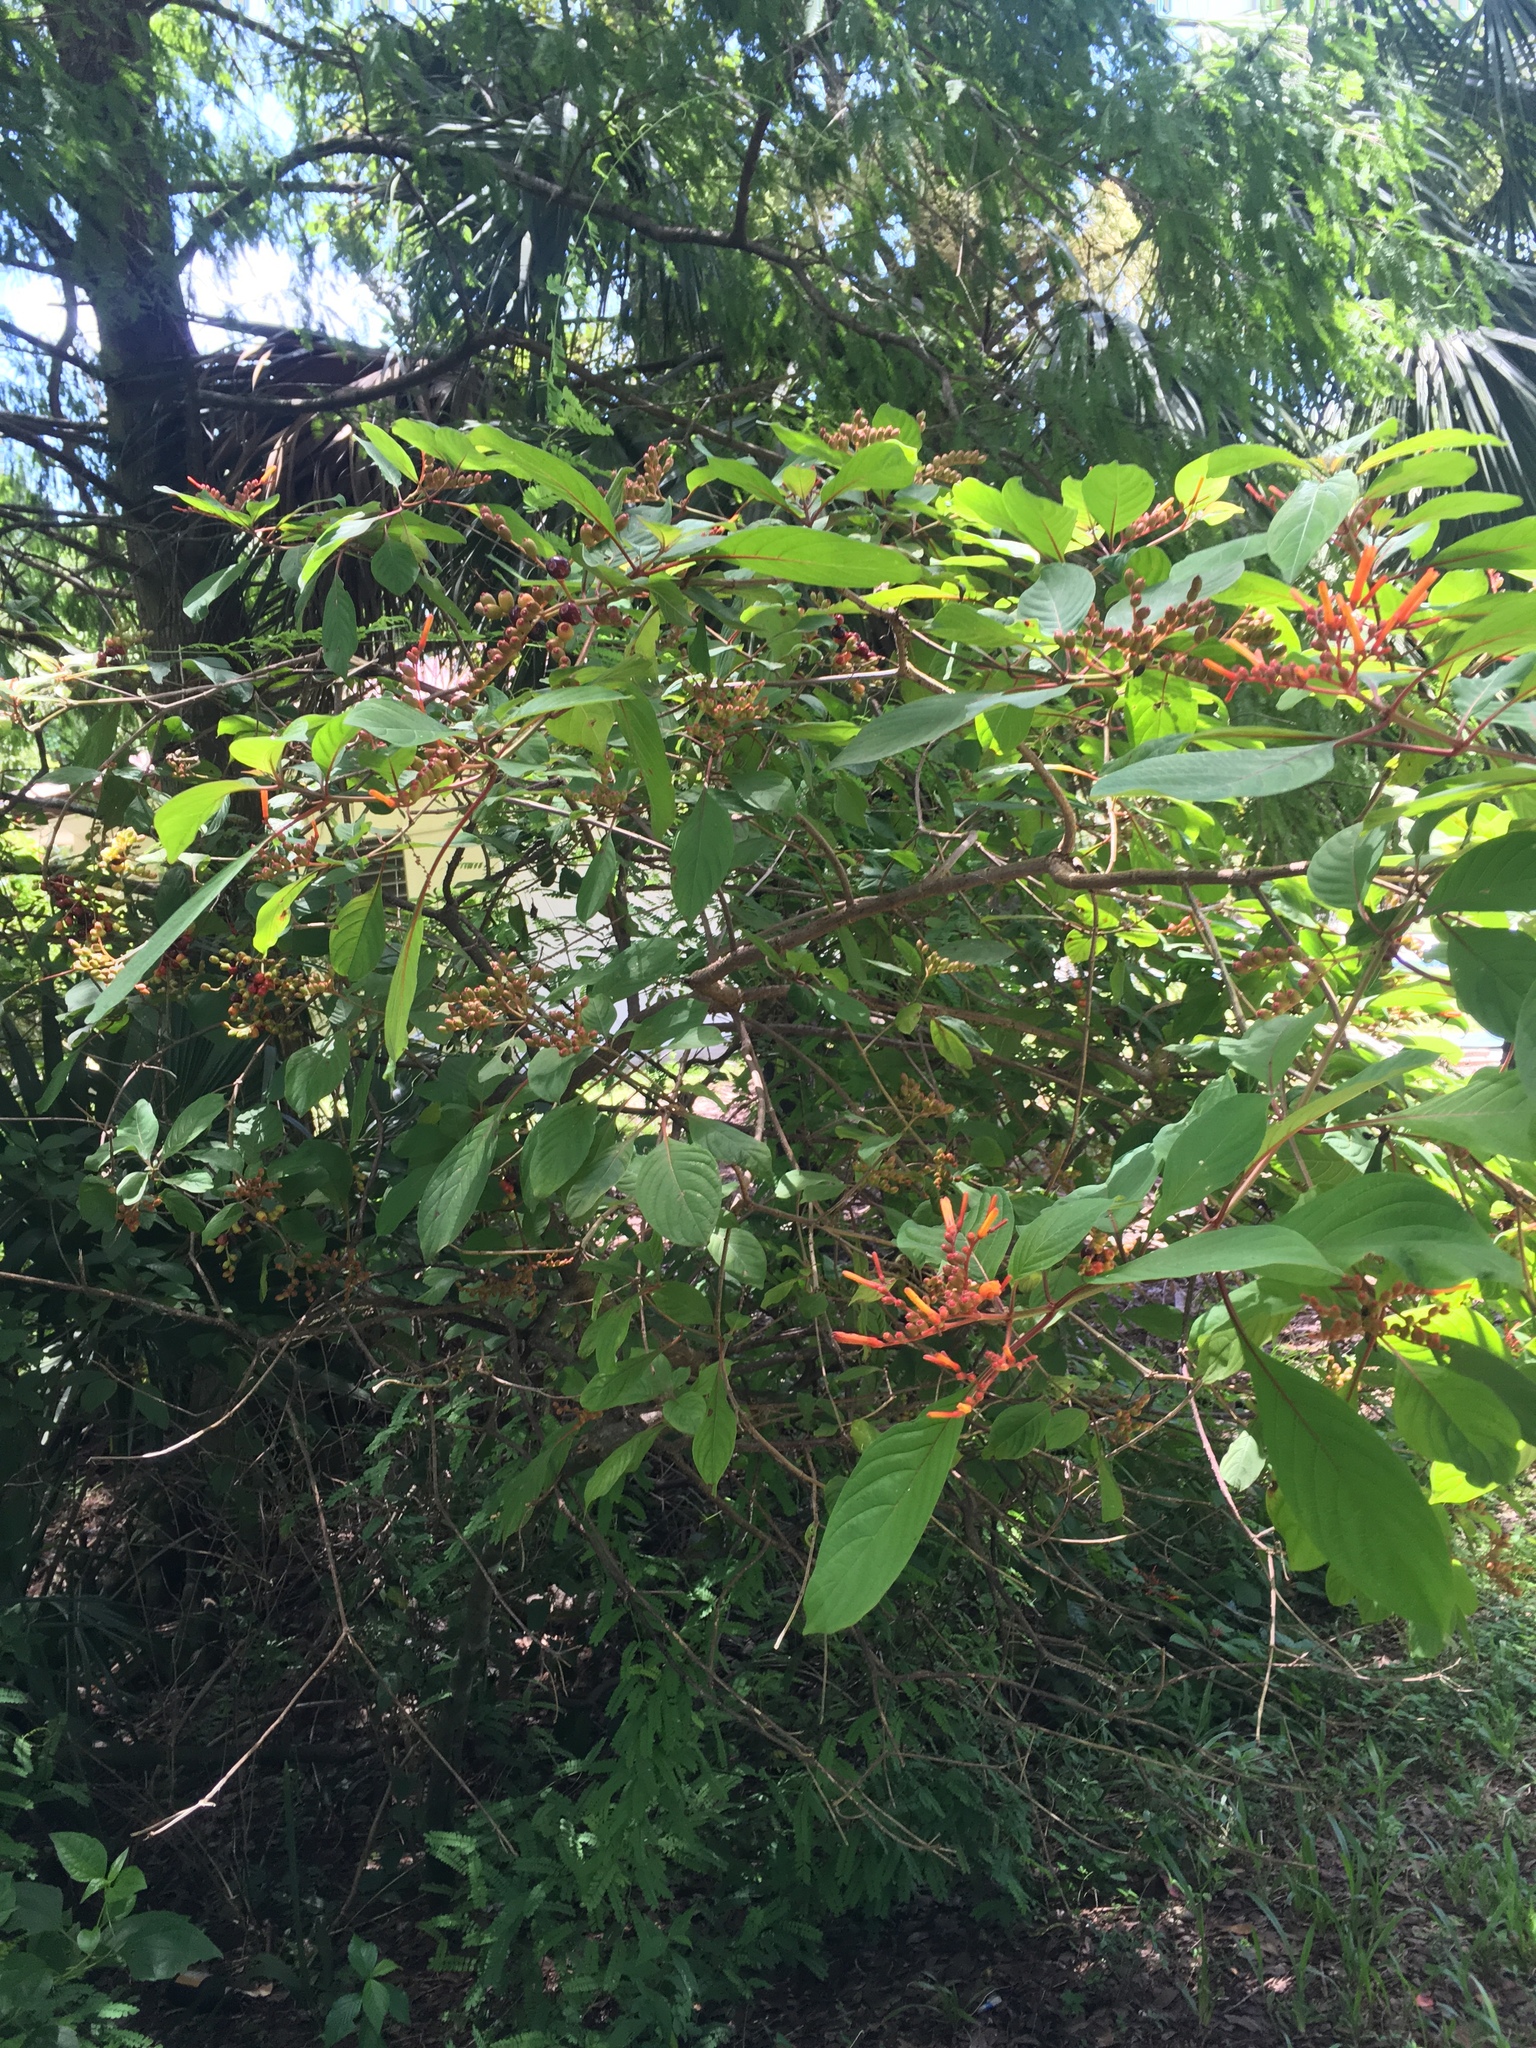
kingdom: Plantae
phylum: Tracheophyta
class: Magnoliopsida
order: Gentianales
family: Rubiaceae
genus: Hamelia
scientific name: Hamelia patens
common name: Redhead
